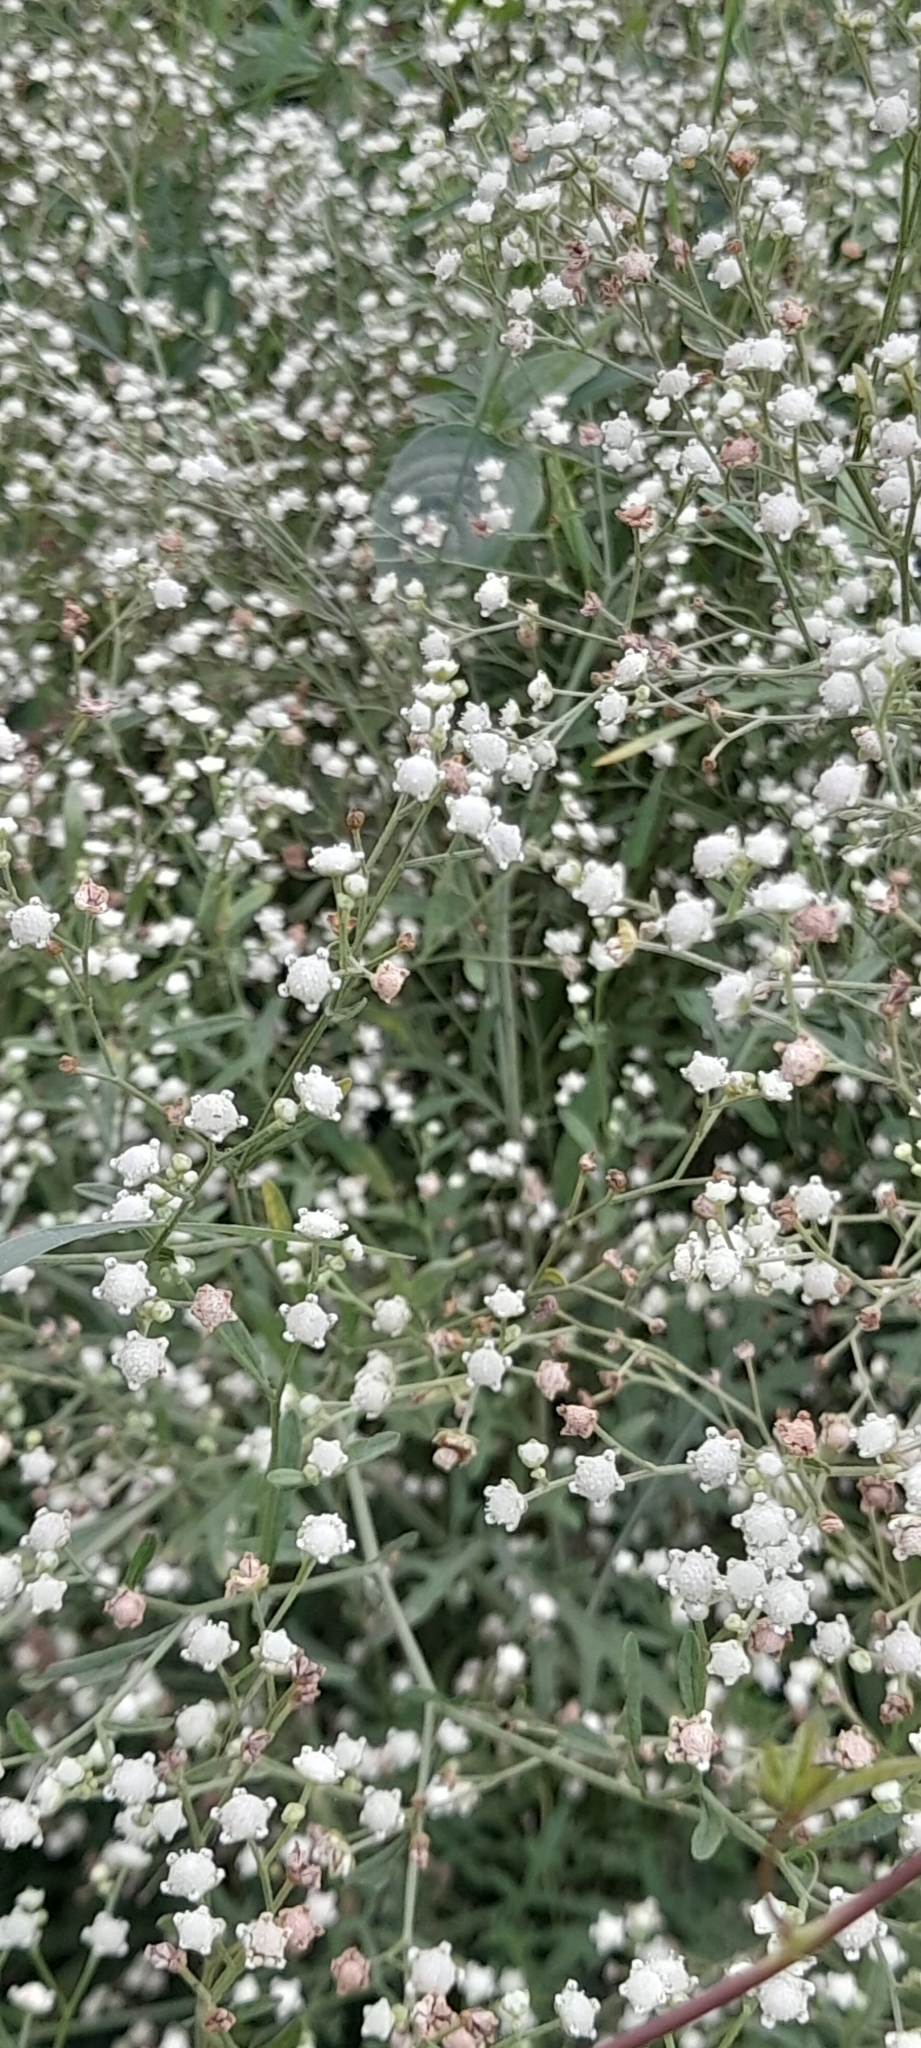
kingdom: Plantae
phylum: Tracheophyta
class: Magnoliopsida
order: Asterales
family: Asteraceae
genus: Parthenium
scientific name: Parthenium hysterophorus
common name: Santa maria feverfew
